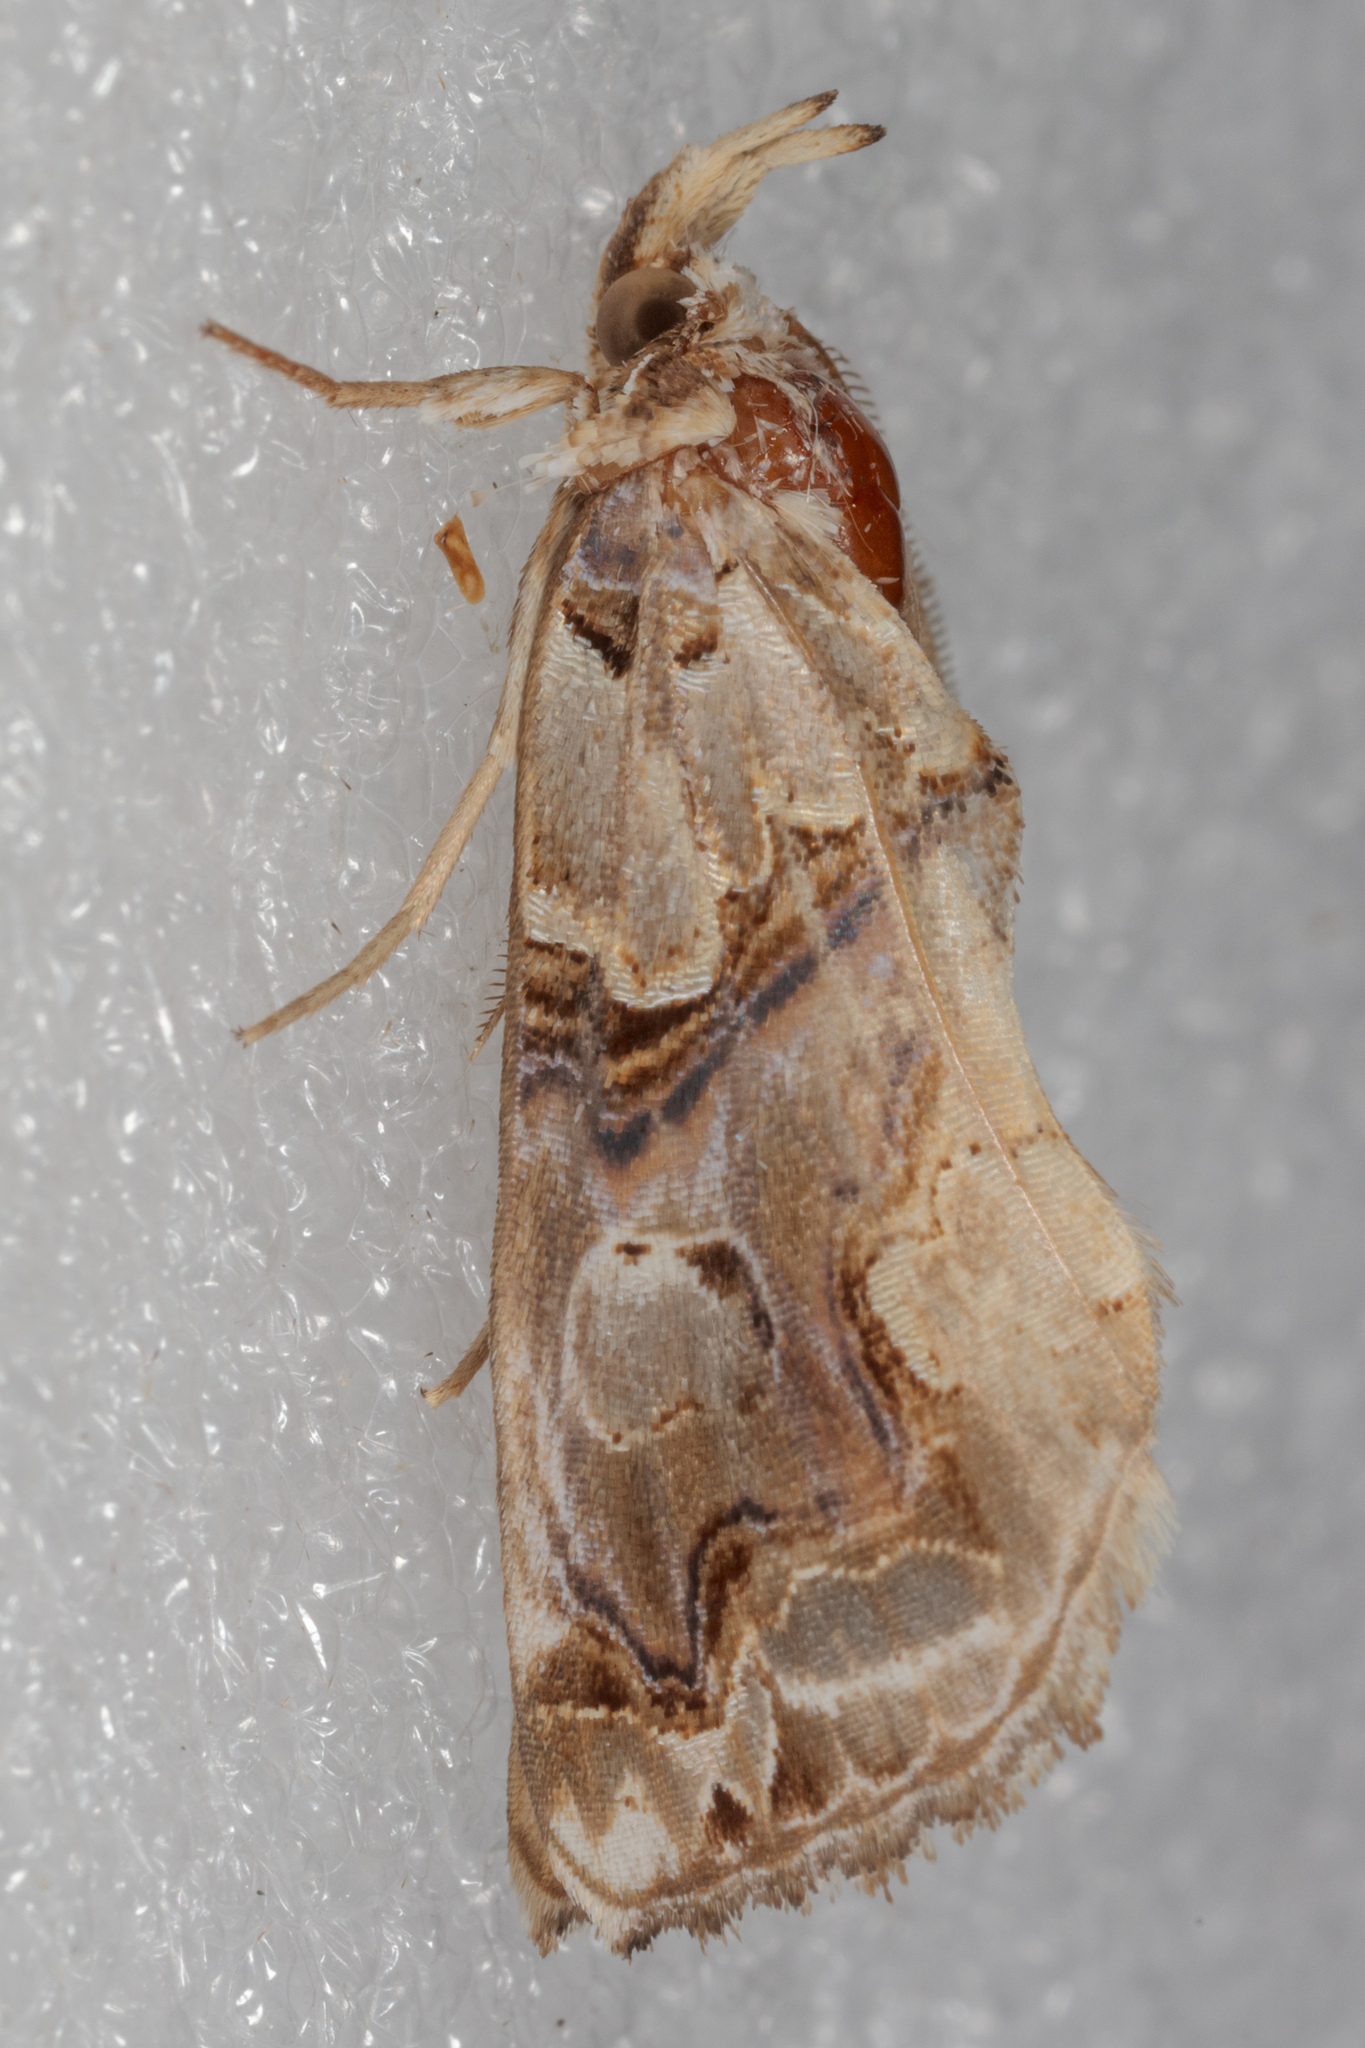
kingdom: Animalia
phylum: Arthropoda
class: Insecta
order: Lepidoptera
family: Erebidae
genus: Plusiodonta
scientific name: Plusiodonta compressipalpis
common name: Moonseed moth
